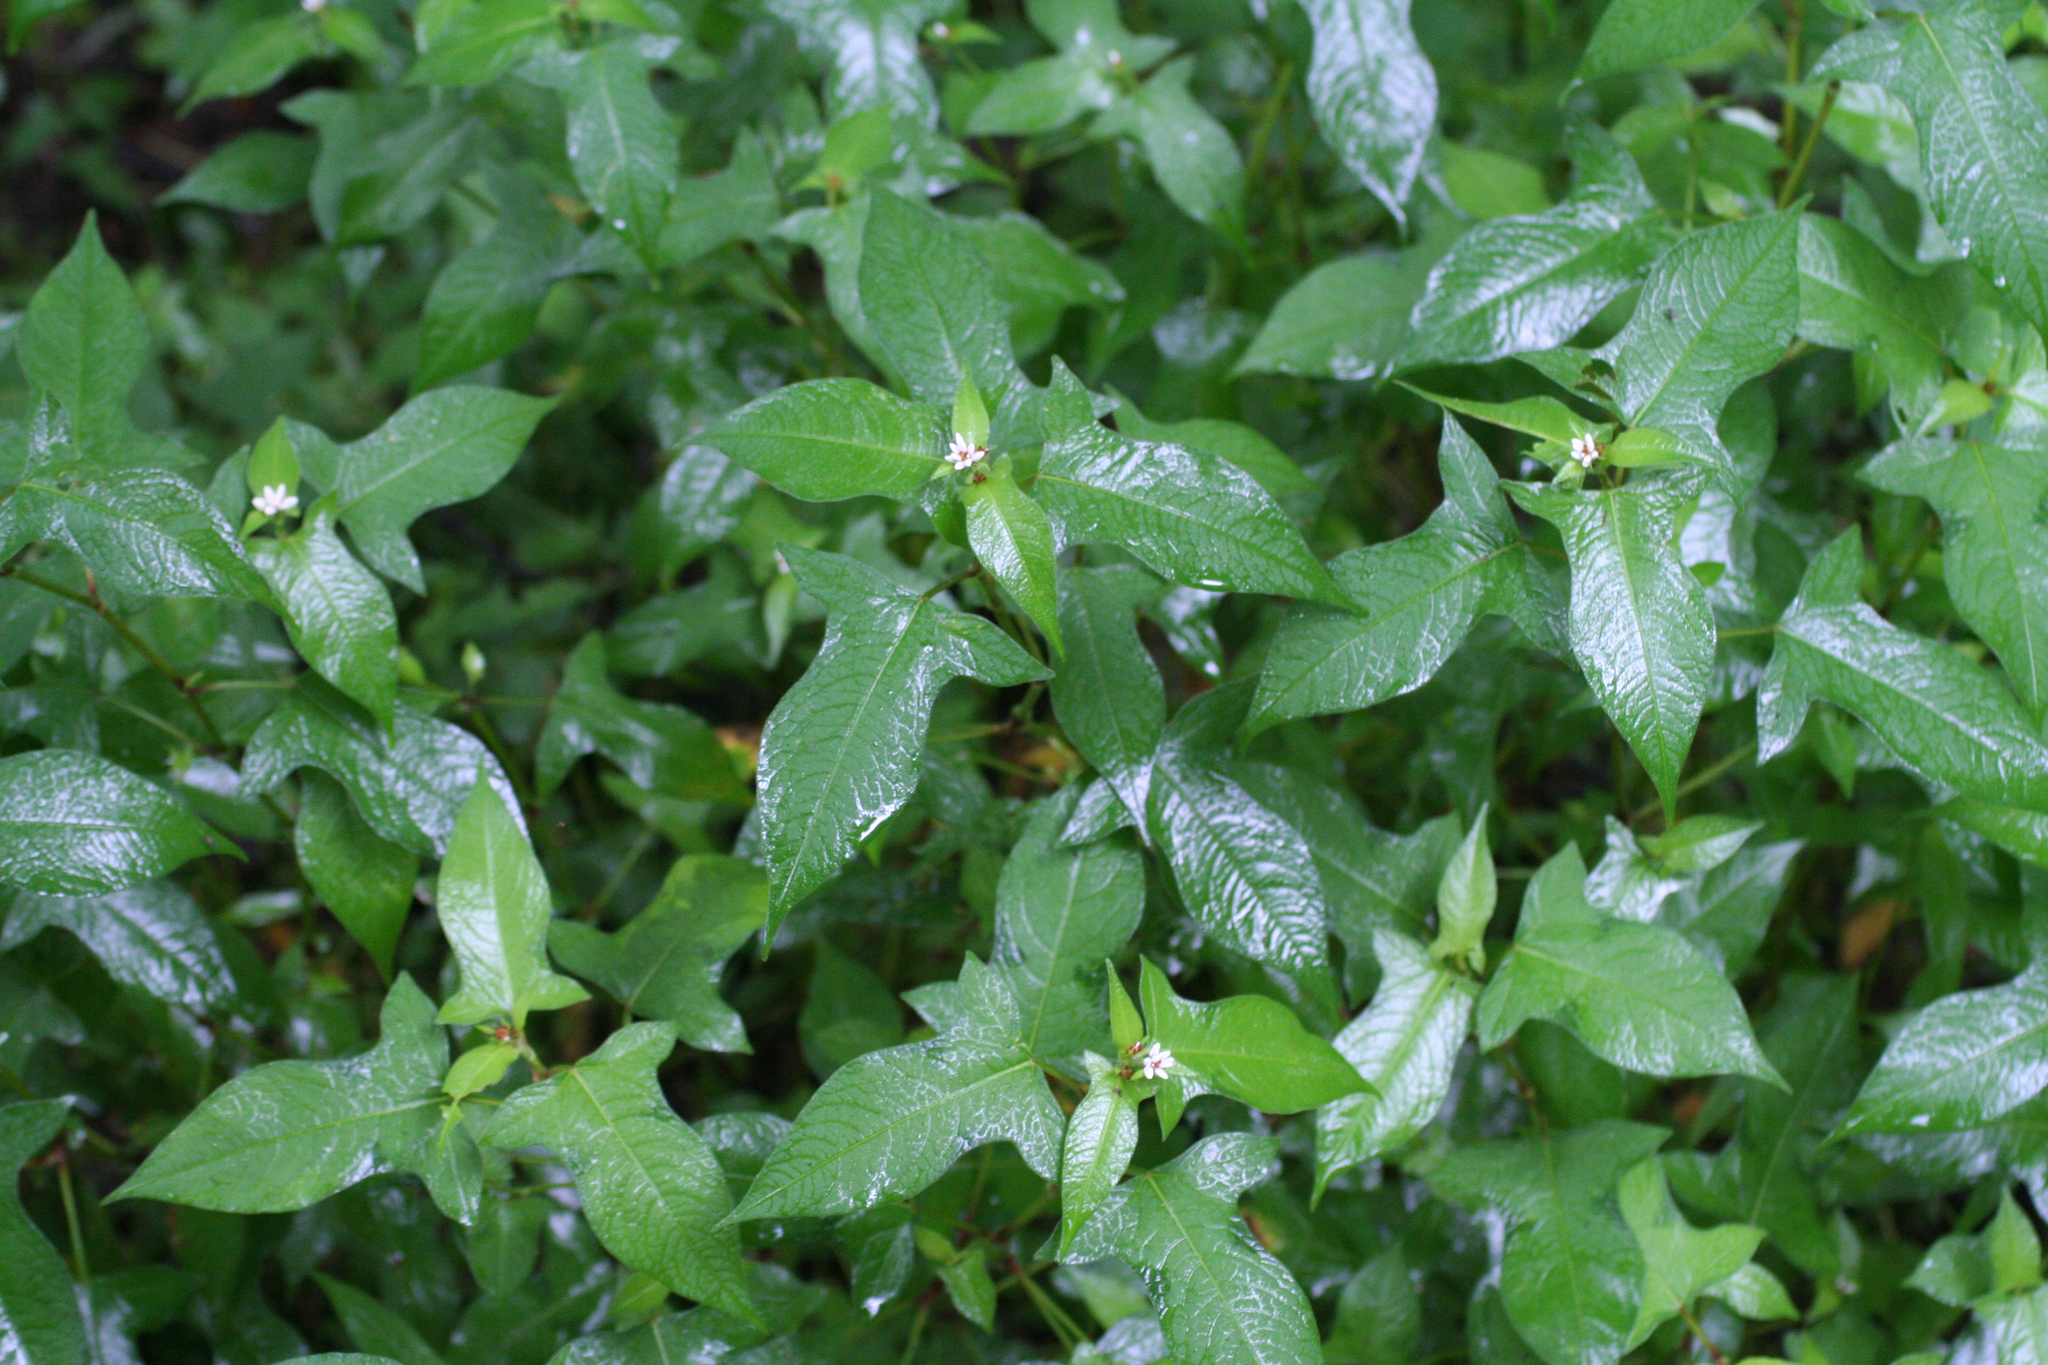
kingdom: Plantae
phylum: Tracheophyta
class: Magnoliopsida
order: Caryophyllales
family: Polygonaceae
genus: Persicaria
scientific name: Persicaria thunbergii
